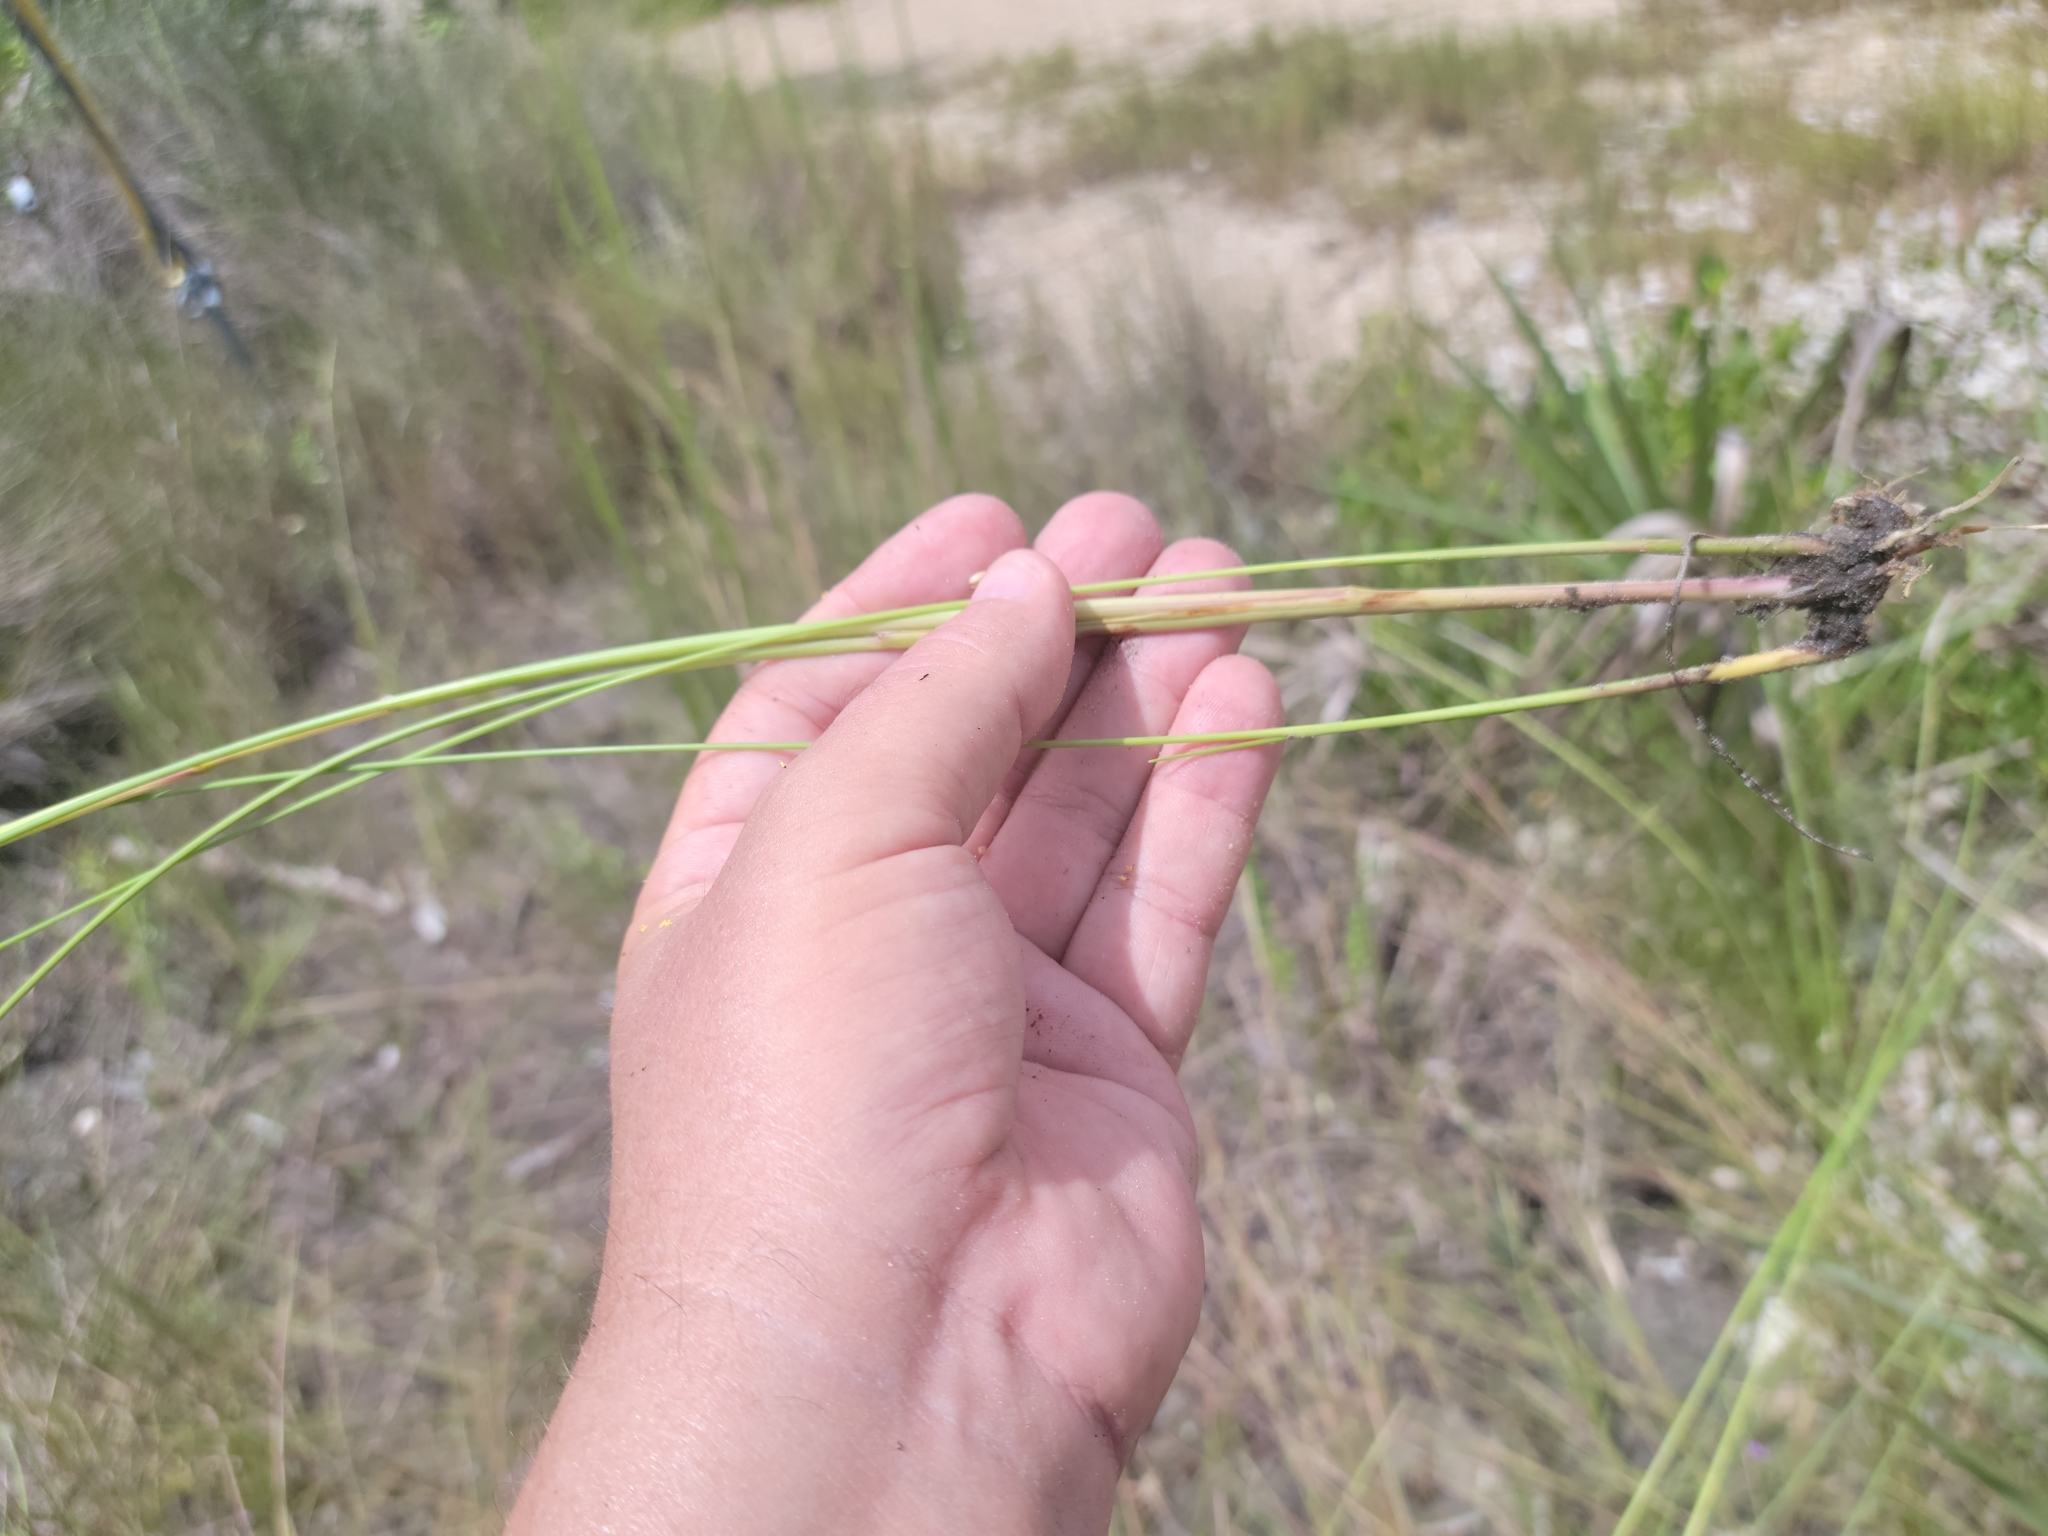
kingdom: Plantae
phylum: Tracheophyta
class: Liliopsida
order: Poales
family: Poaceae
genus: Paspalum
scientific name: Paspalum monostachyum
